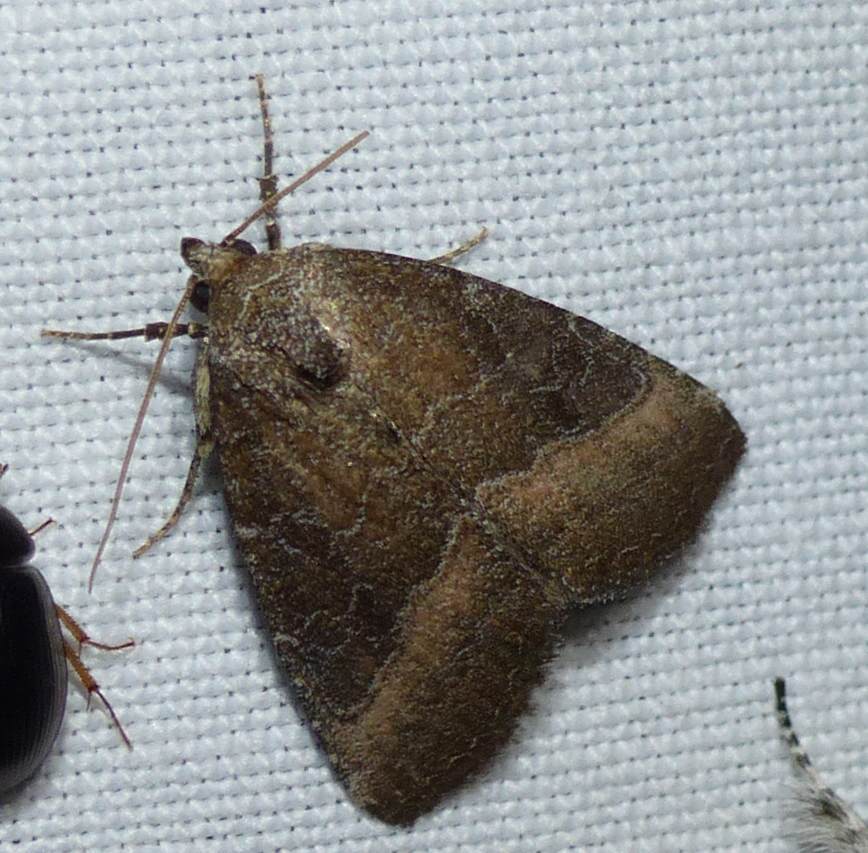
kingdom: Animalia
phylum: Arthropoda
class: Insecta
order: Lepidoptera
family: Noctuidae
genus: Ogdoconta
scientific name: Ogdoconta cinereola
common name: Common pinkband
